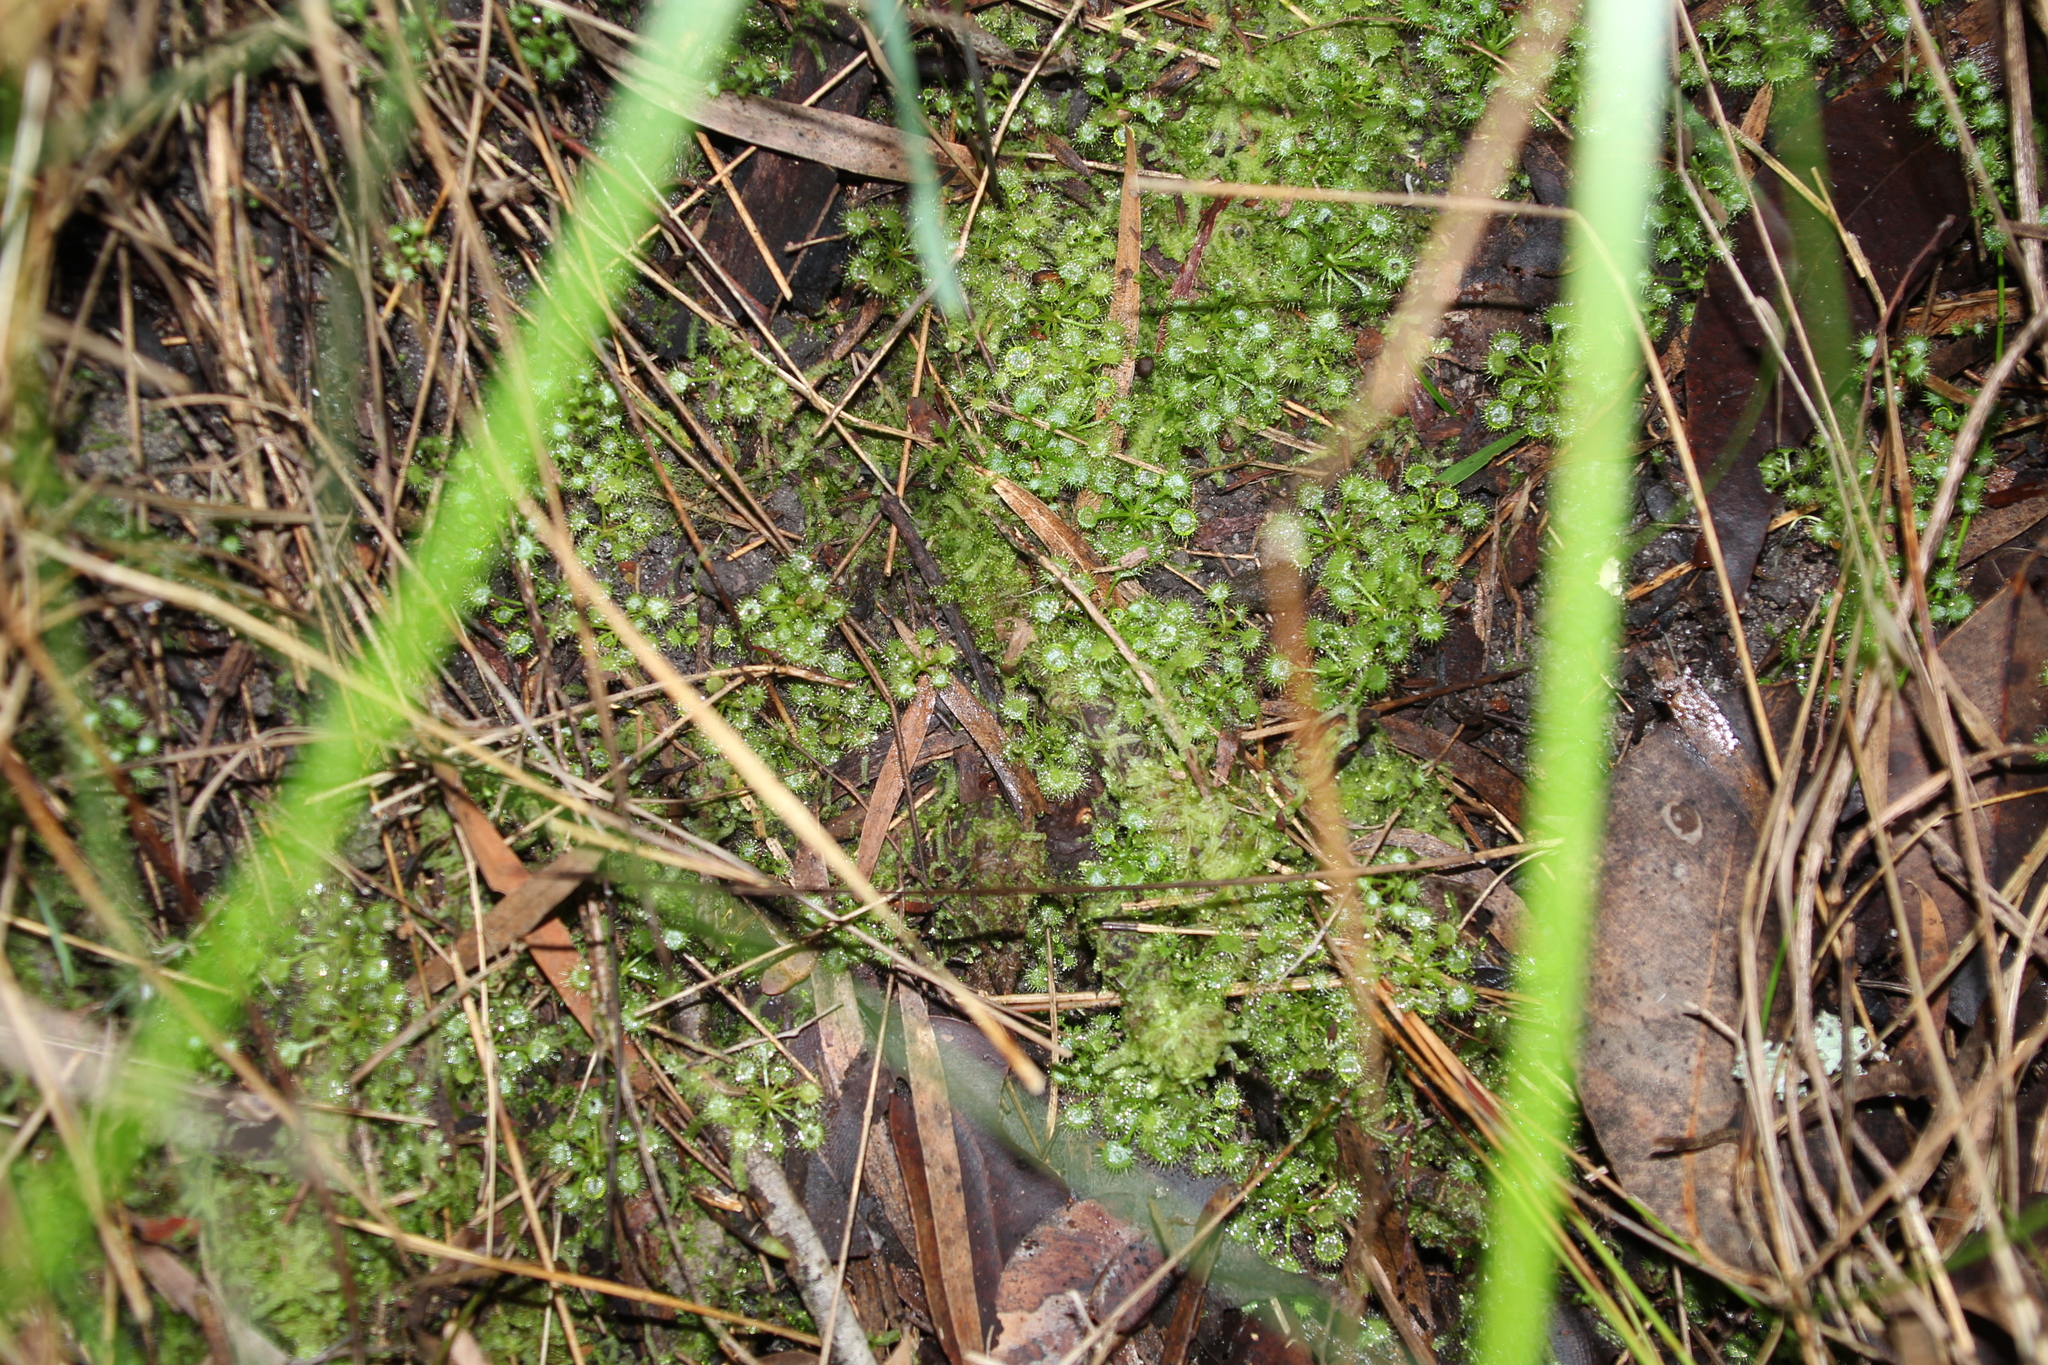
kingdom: Plantae
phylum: Tracheophyta
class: Magnoliopsida
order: Caryophyllales
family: Droseraceae
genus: Drosera
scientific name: Drosera modesta
